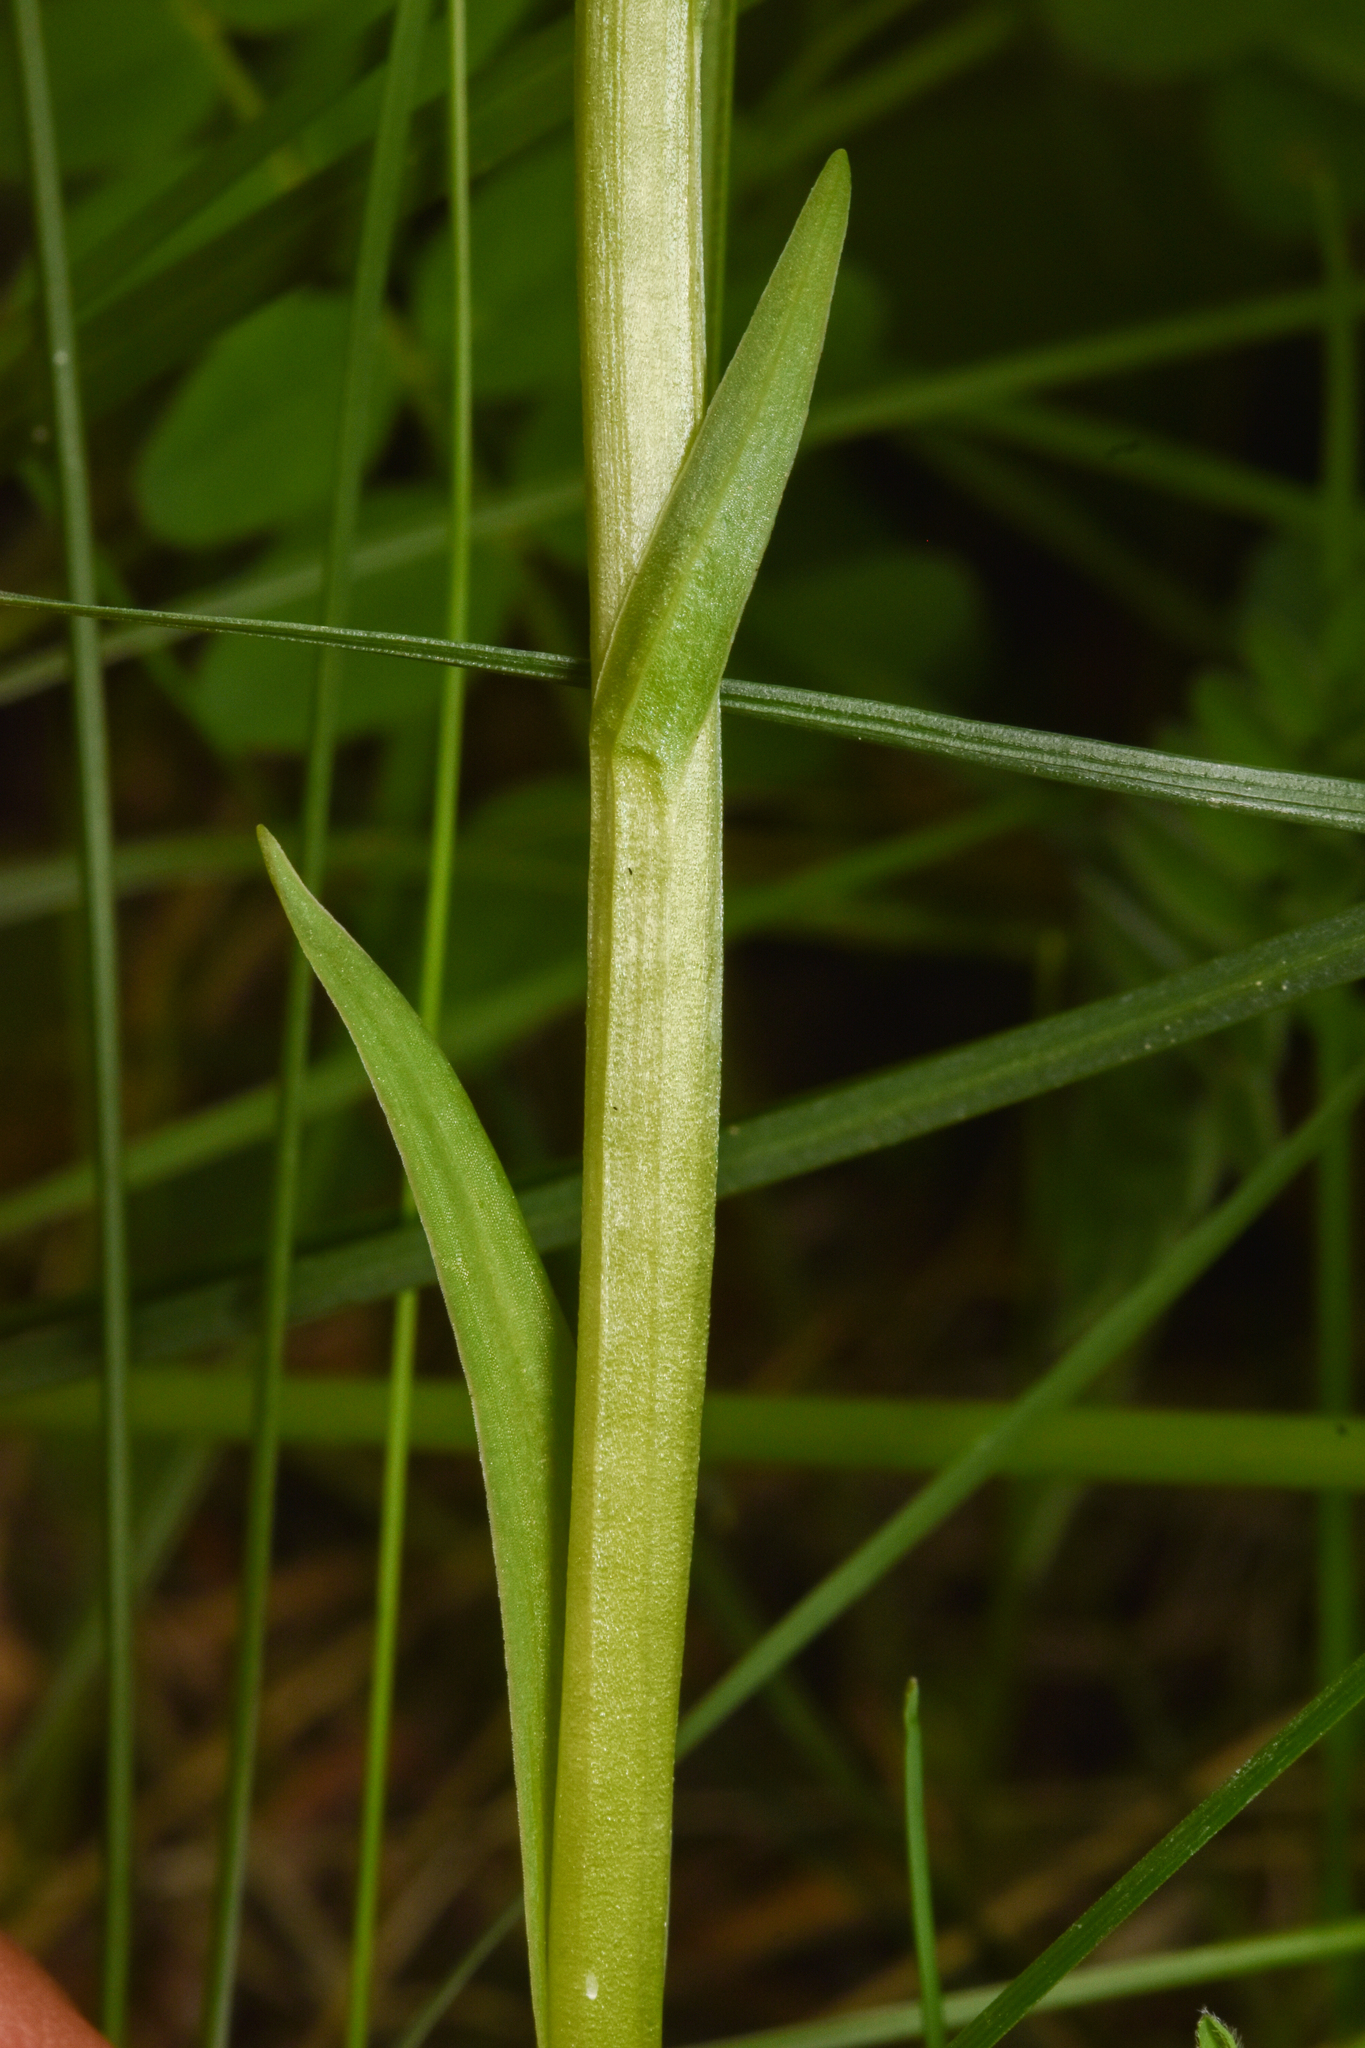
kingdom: Plantae
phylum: Tracheophyta
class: Liliopsida
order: Asparagales
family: Orchidaceae
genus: Platanthera
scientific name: Platanthera aquilonis
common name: Northern green orchid
